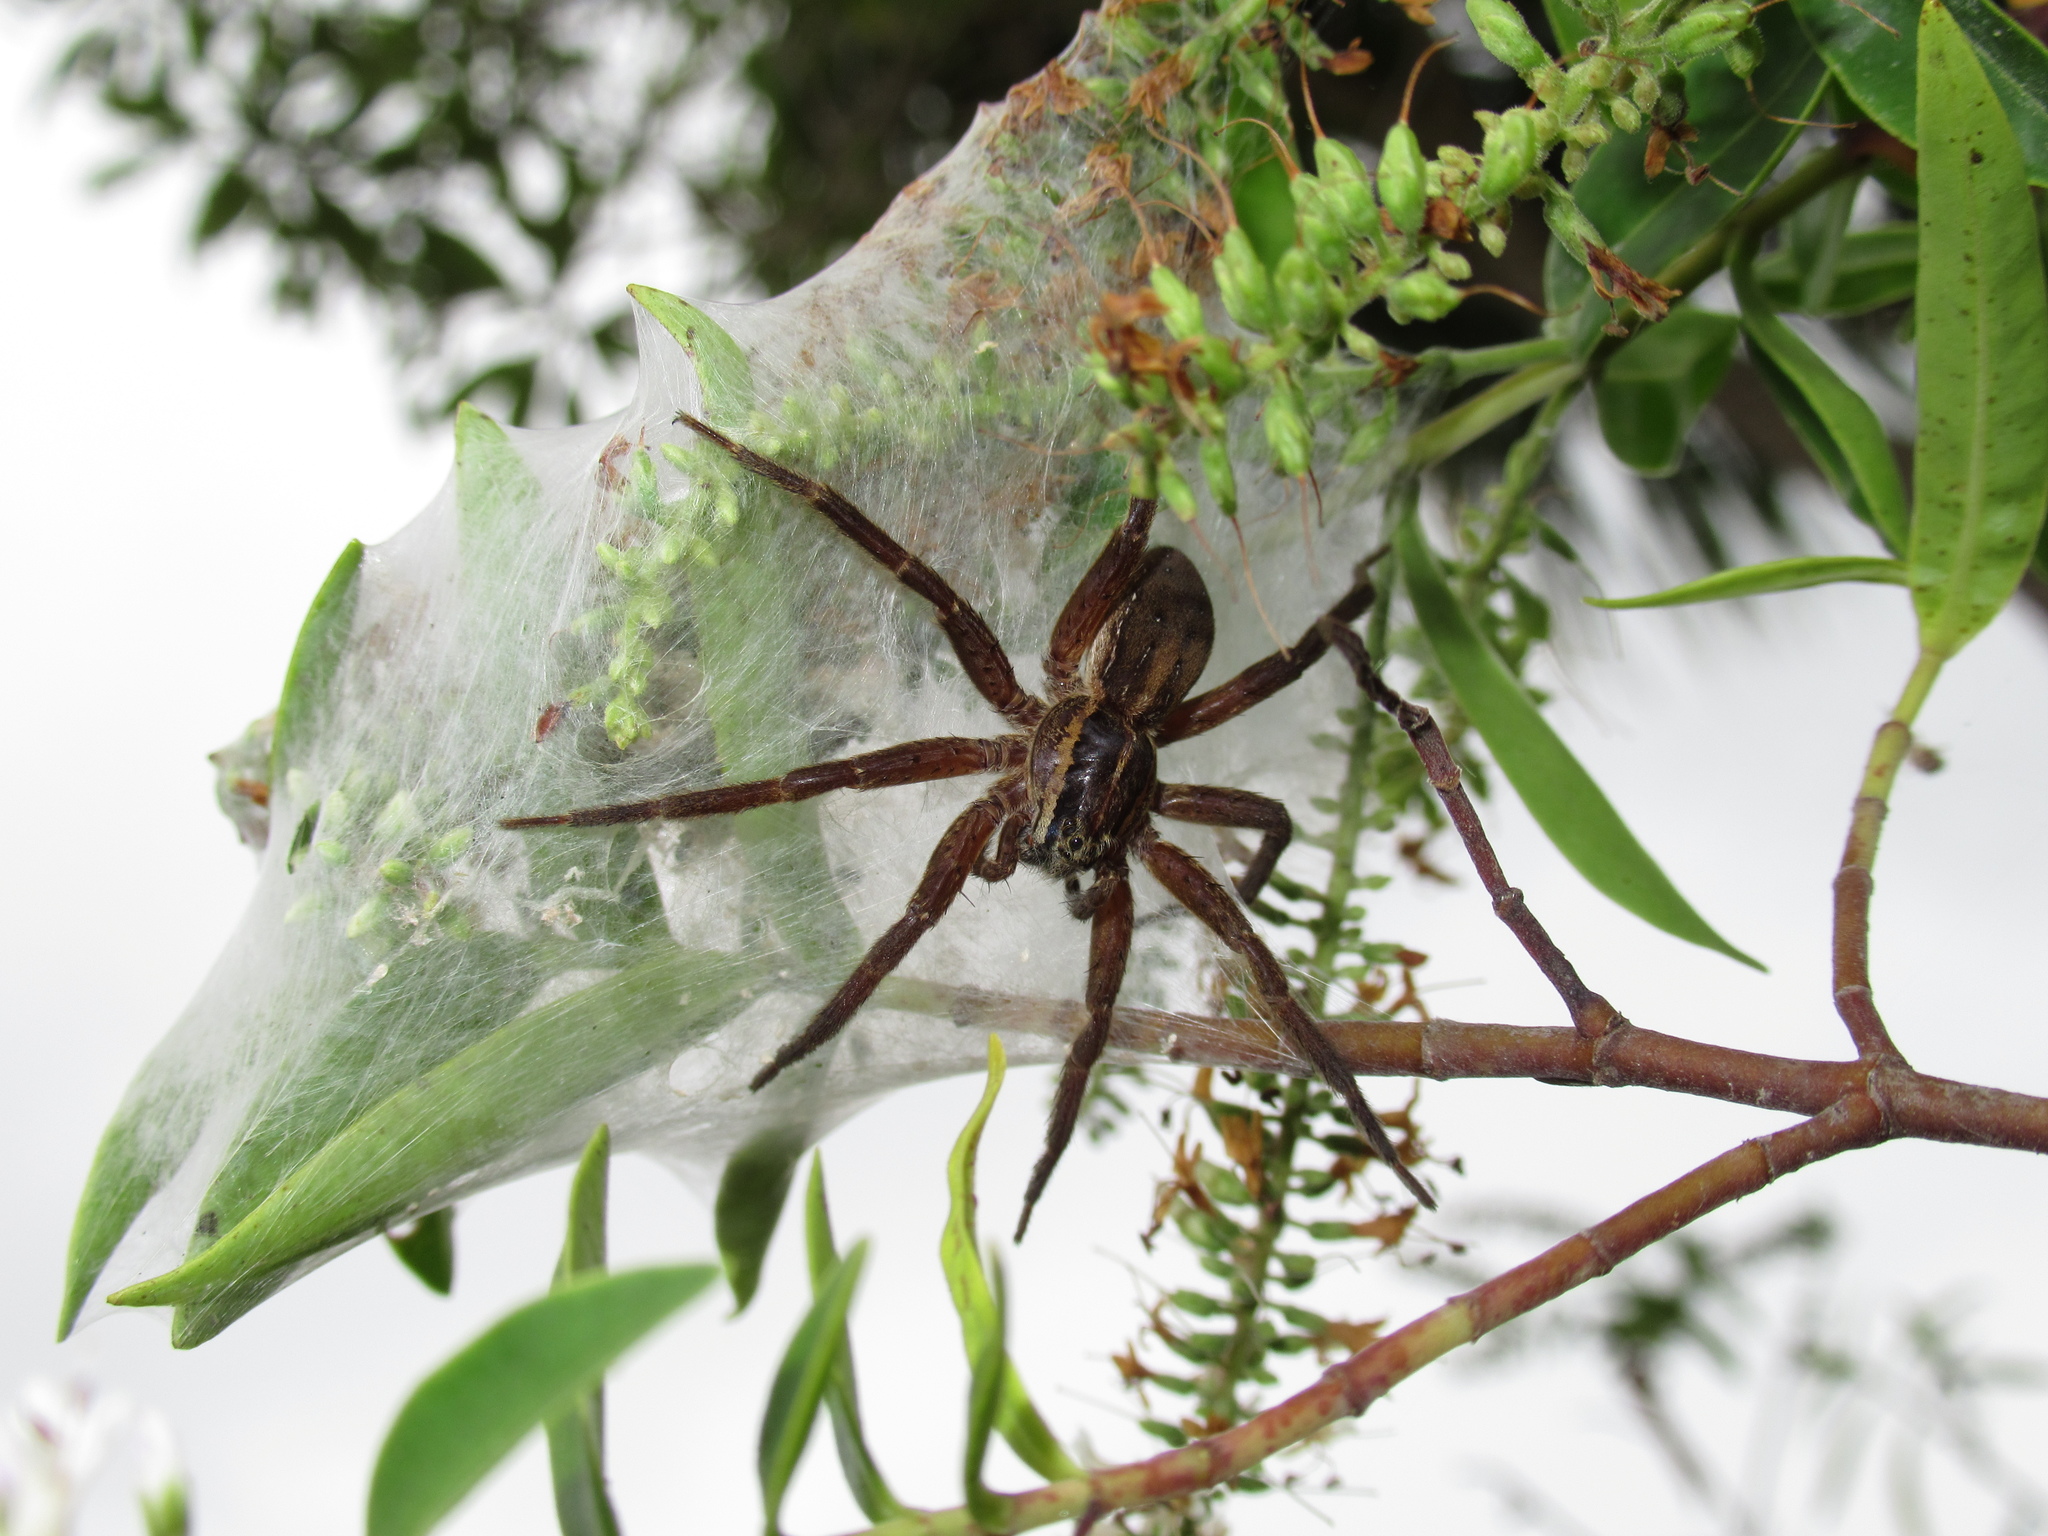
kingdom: Animalia
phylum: Arthropoda
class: Arachnida
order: Araneae
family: Pisauridae
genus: Dolomedes
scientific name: Dolomedes minor
